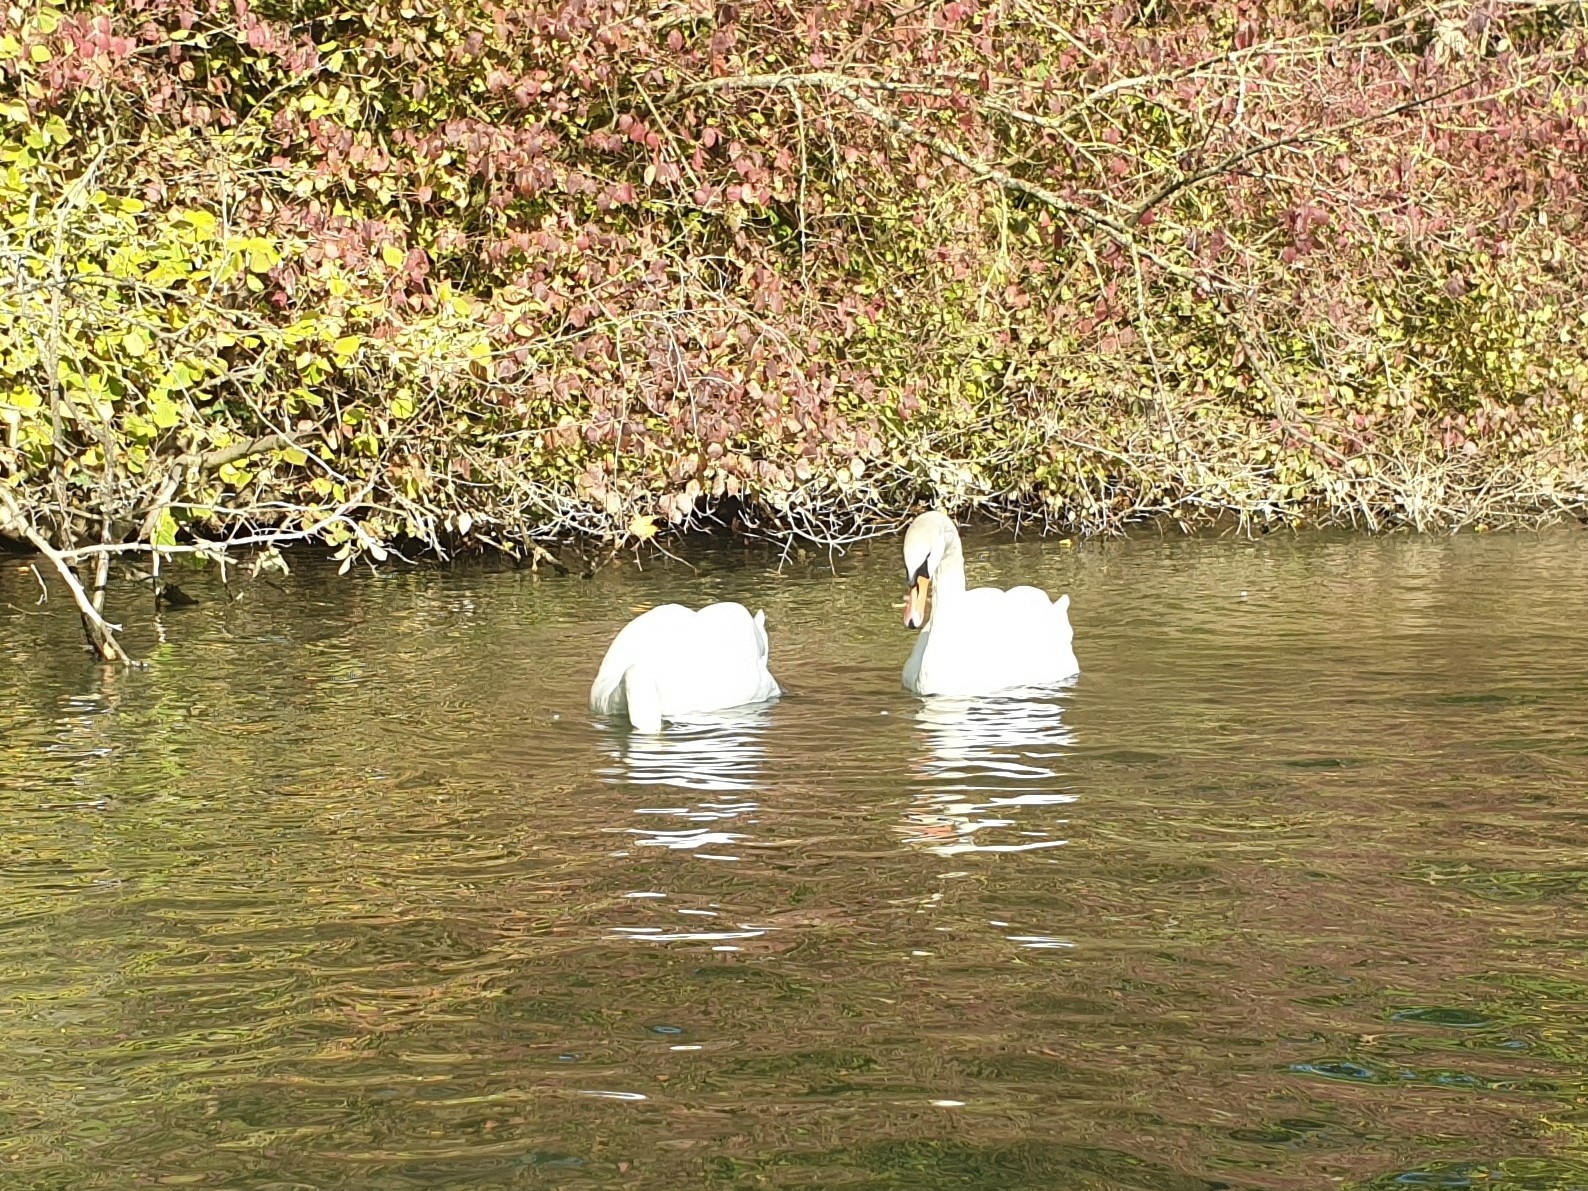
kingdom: Animalia
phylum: Chordata
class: Aves
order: Anseriformes
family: Anatidae
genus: Cygnus
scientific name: Cygnus olor
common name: Mute swan
